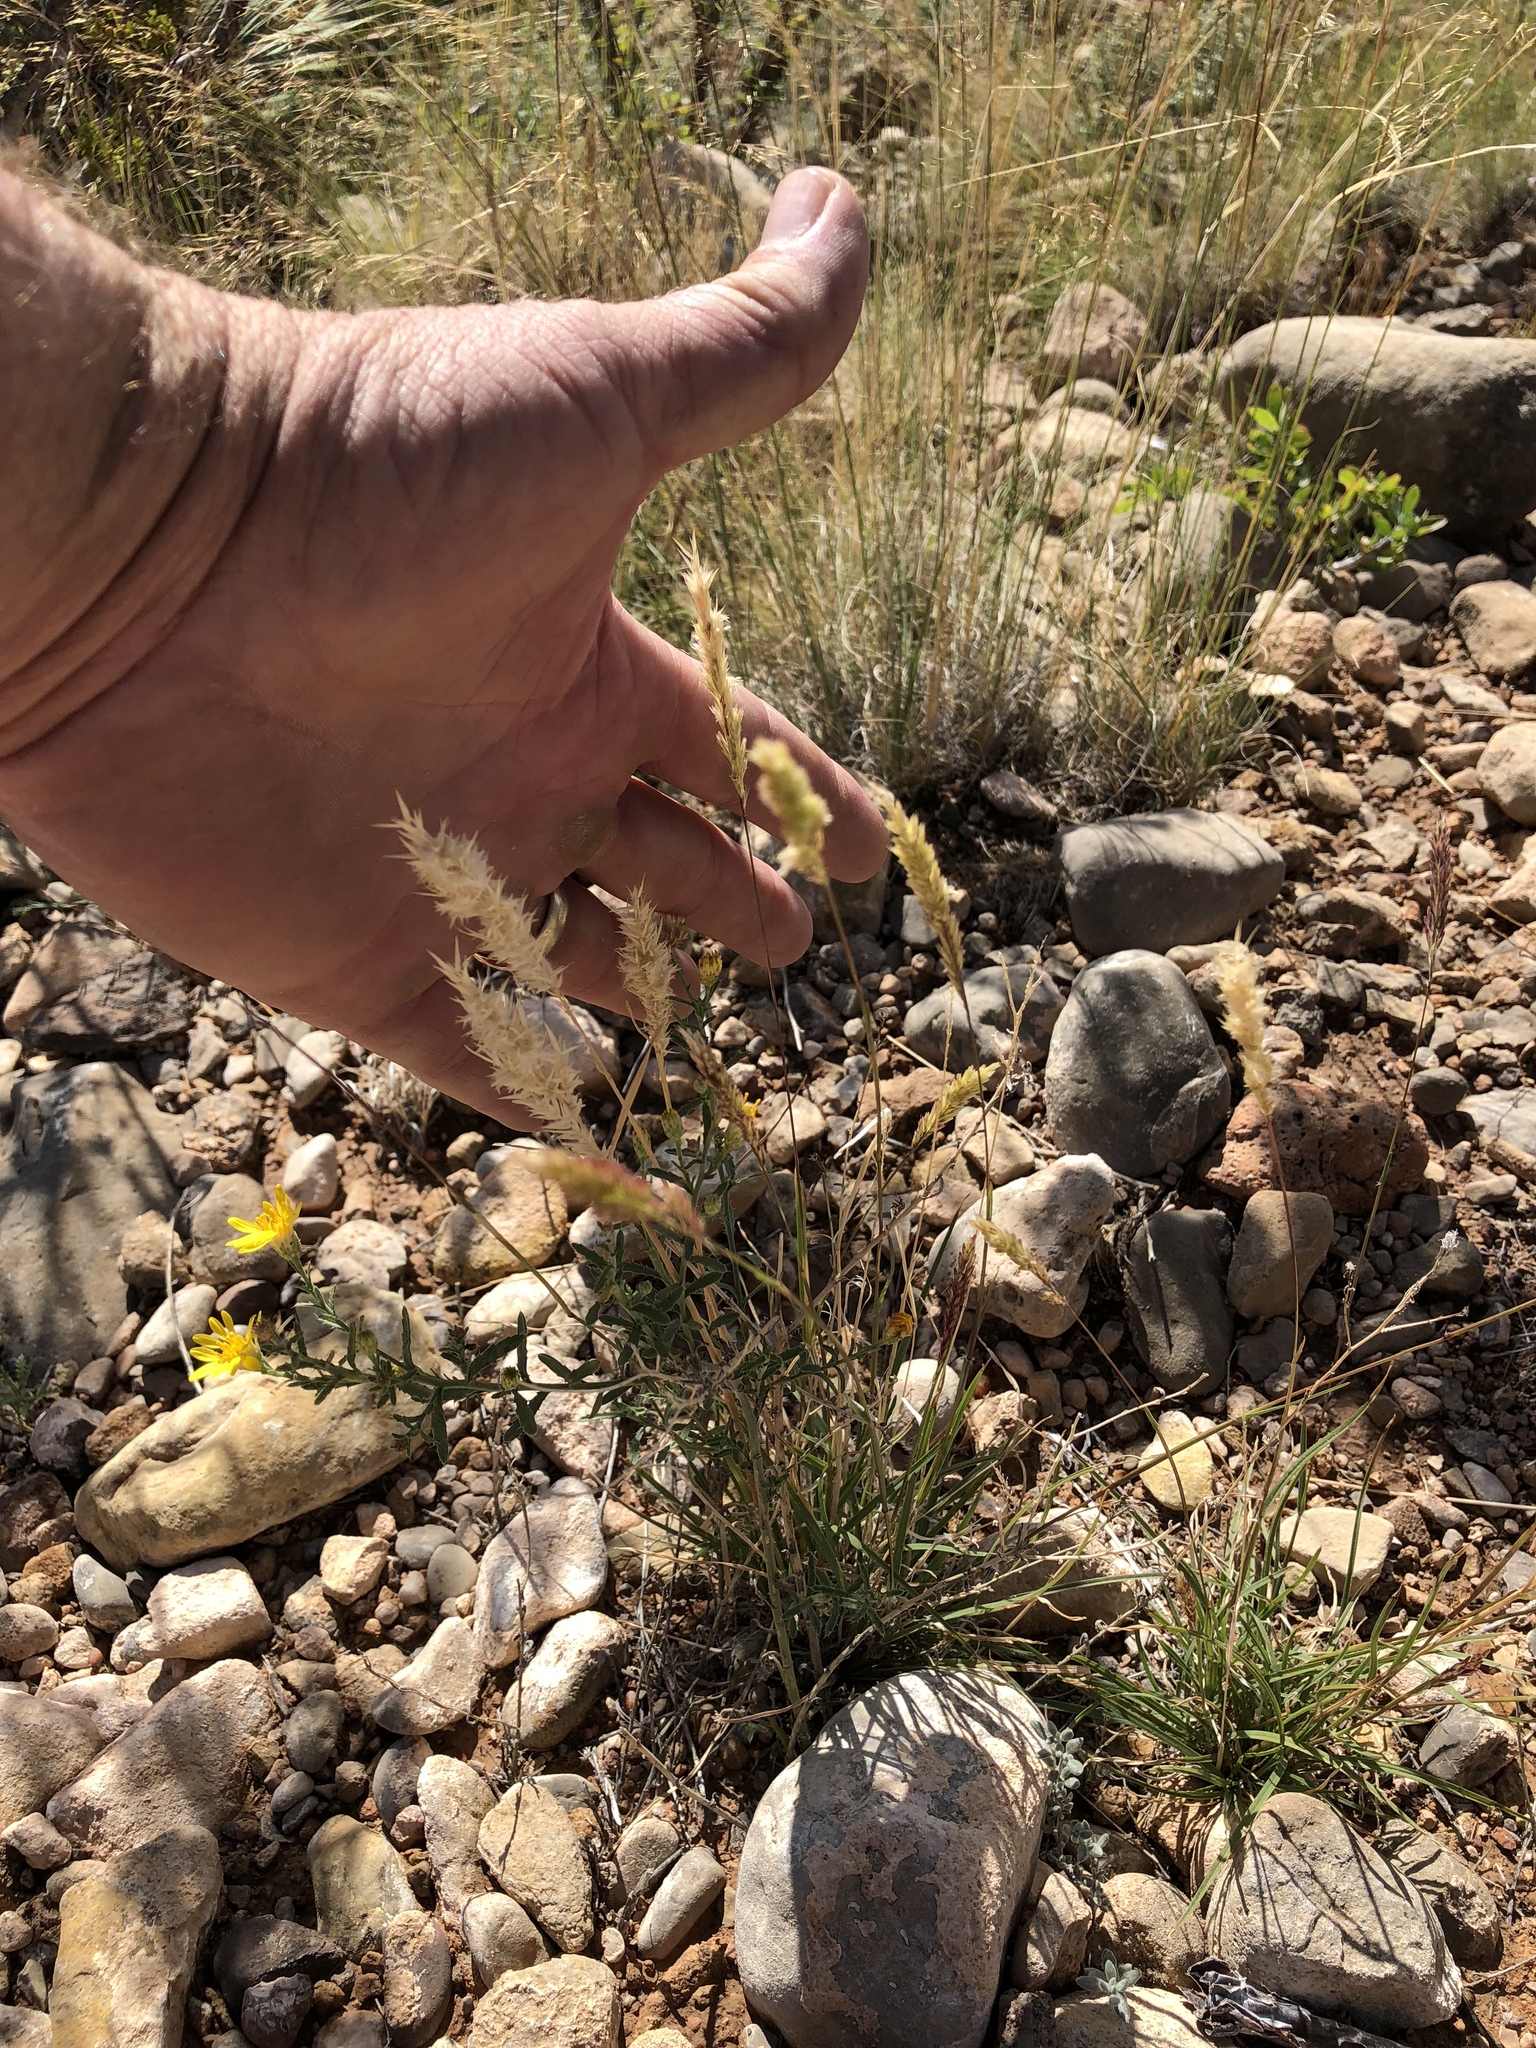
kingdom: Plantae
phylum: Tracheophyta
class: Liliopsida
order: Poales
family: Poaceae
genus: Erioneuron
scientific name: Erioneuron pilosum
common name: Hairy woolly grass
